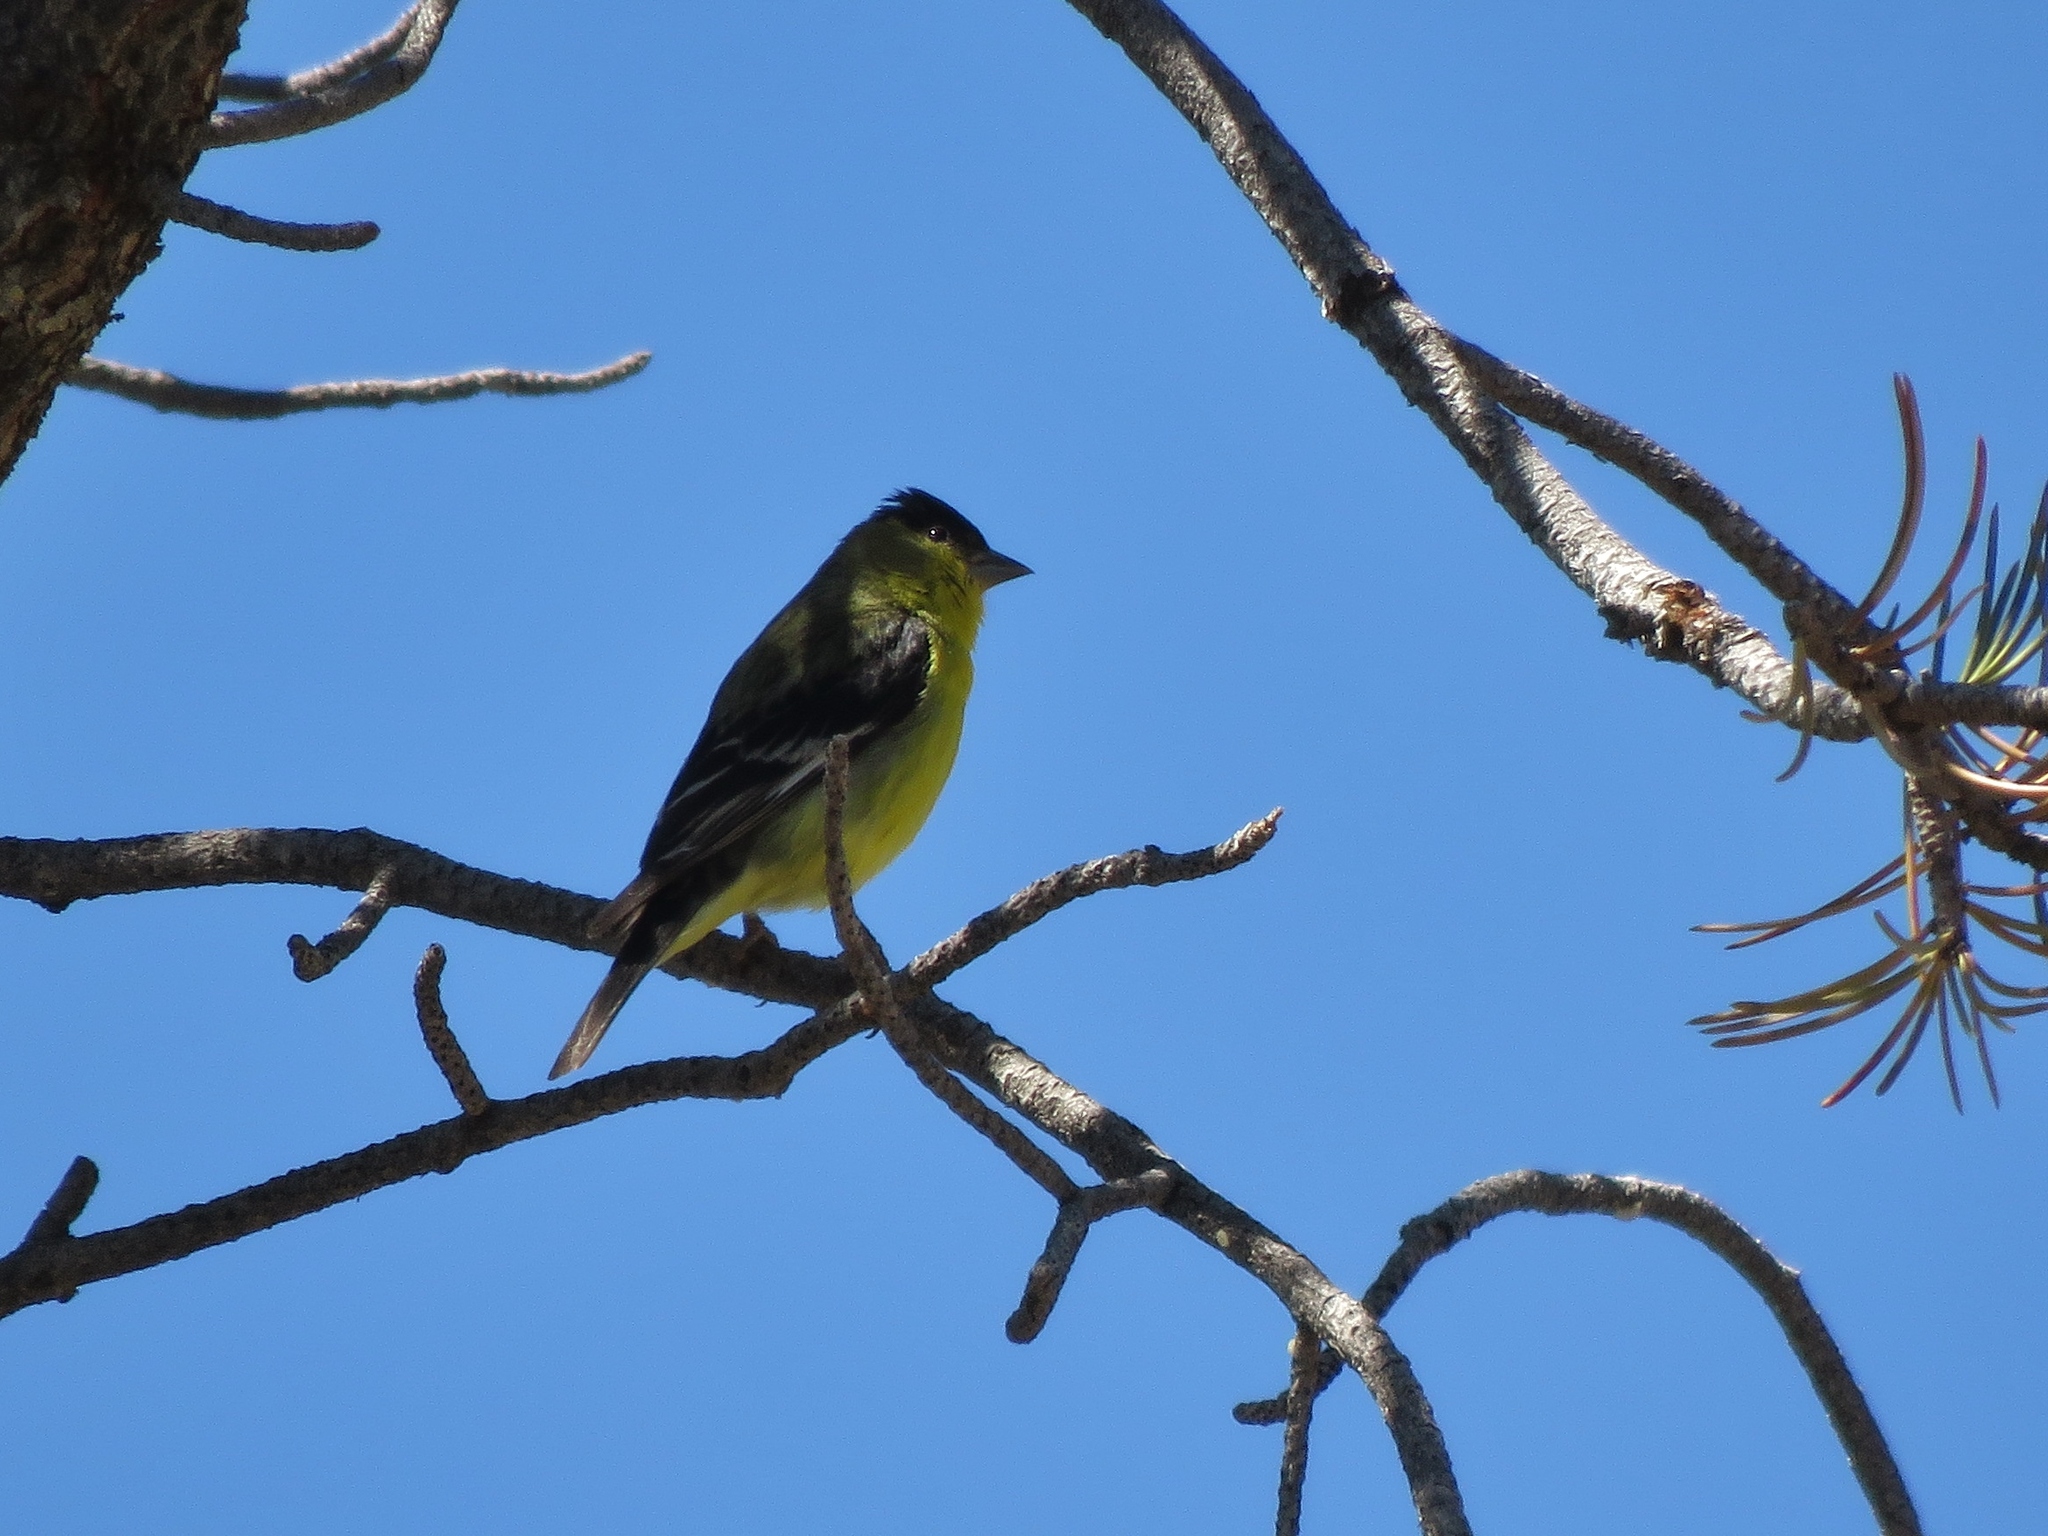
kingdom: Animalia
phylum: Chordata
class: Aves
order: Passeriformes
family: Fringillidae
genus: Spinus
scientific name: Spinus psaltria
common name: Lesser goldfinch
